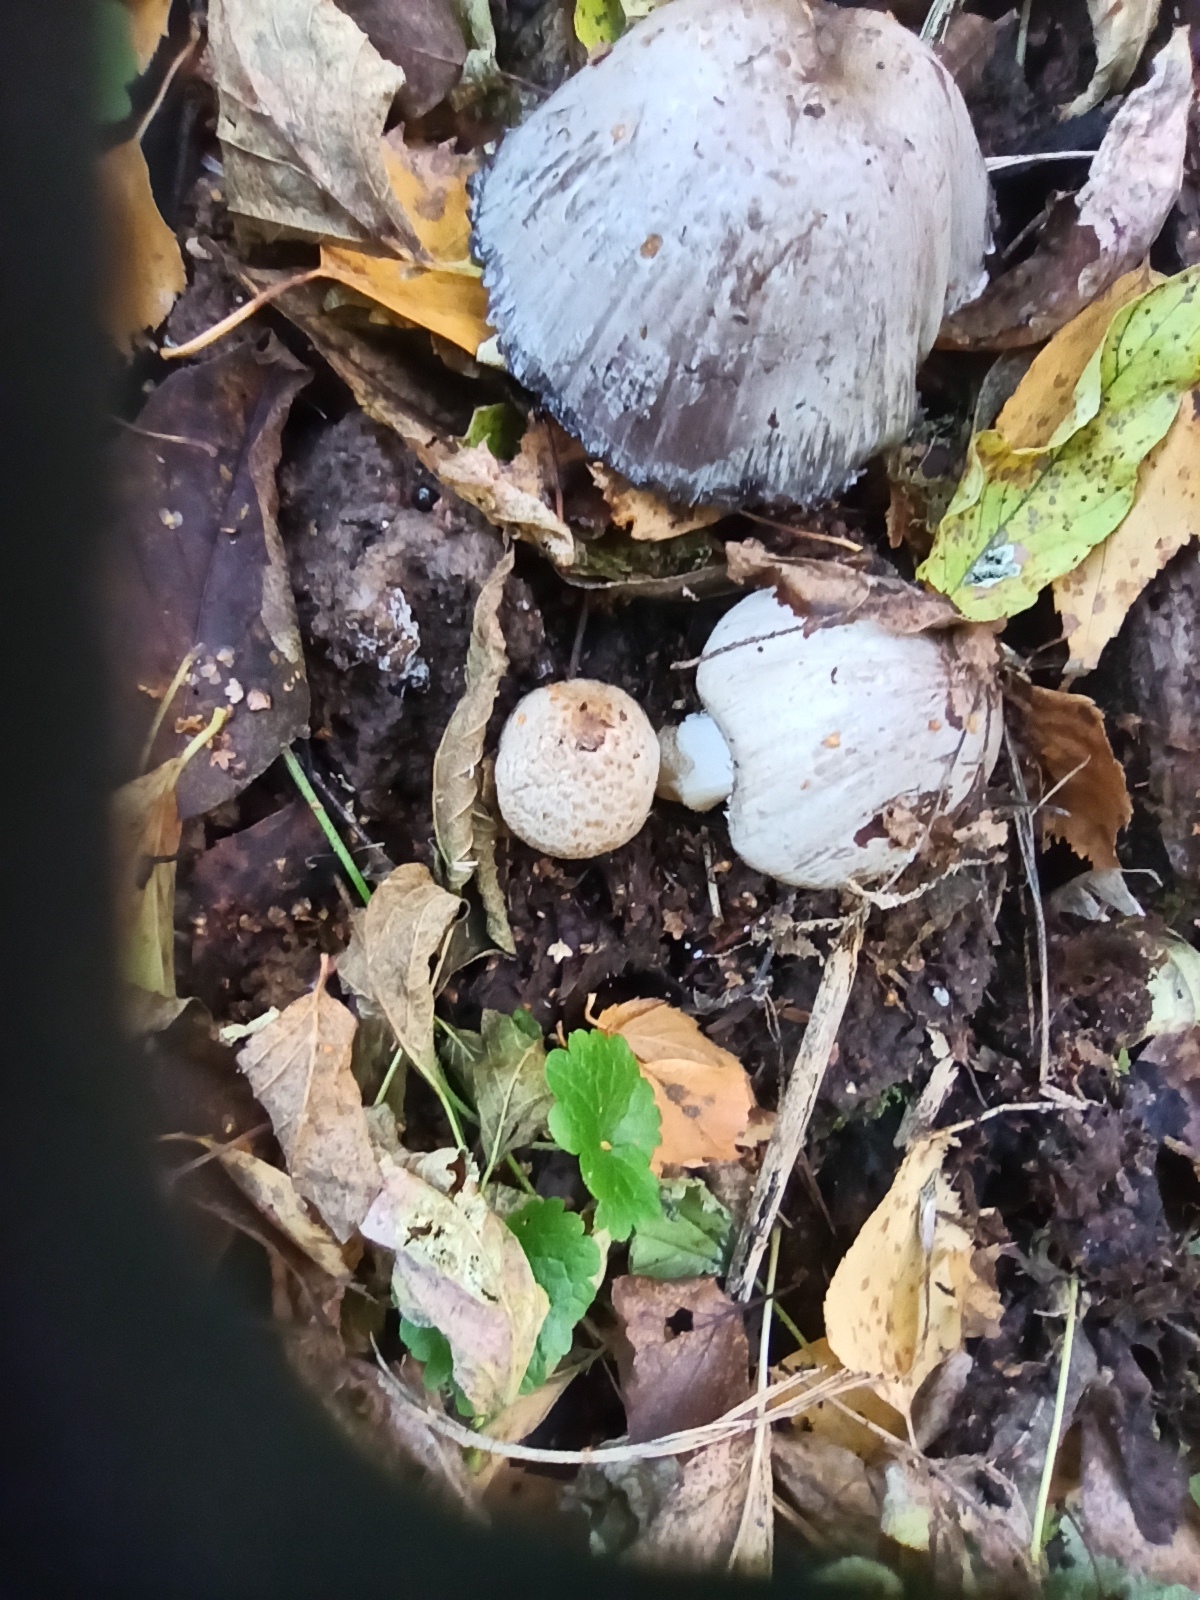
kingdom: Fungi
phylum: Basidiomycota
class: Agaricomycetes
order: Agaricales
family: Psathyrellaceae
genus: Coprinopsis
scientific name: Coprinopsis atramentaria
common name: Common ink-cap
